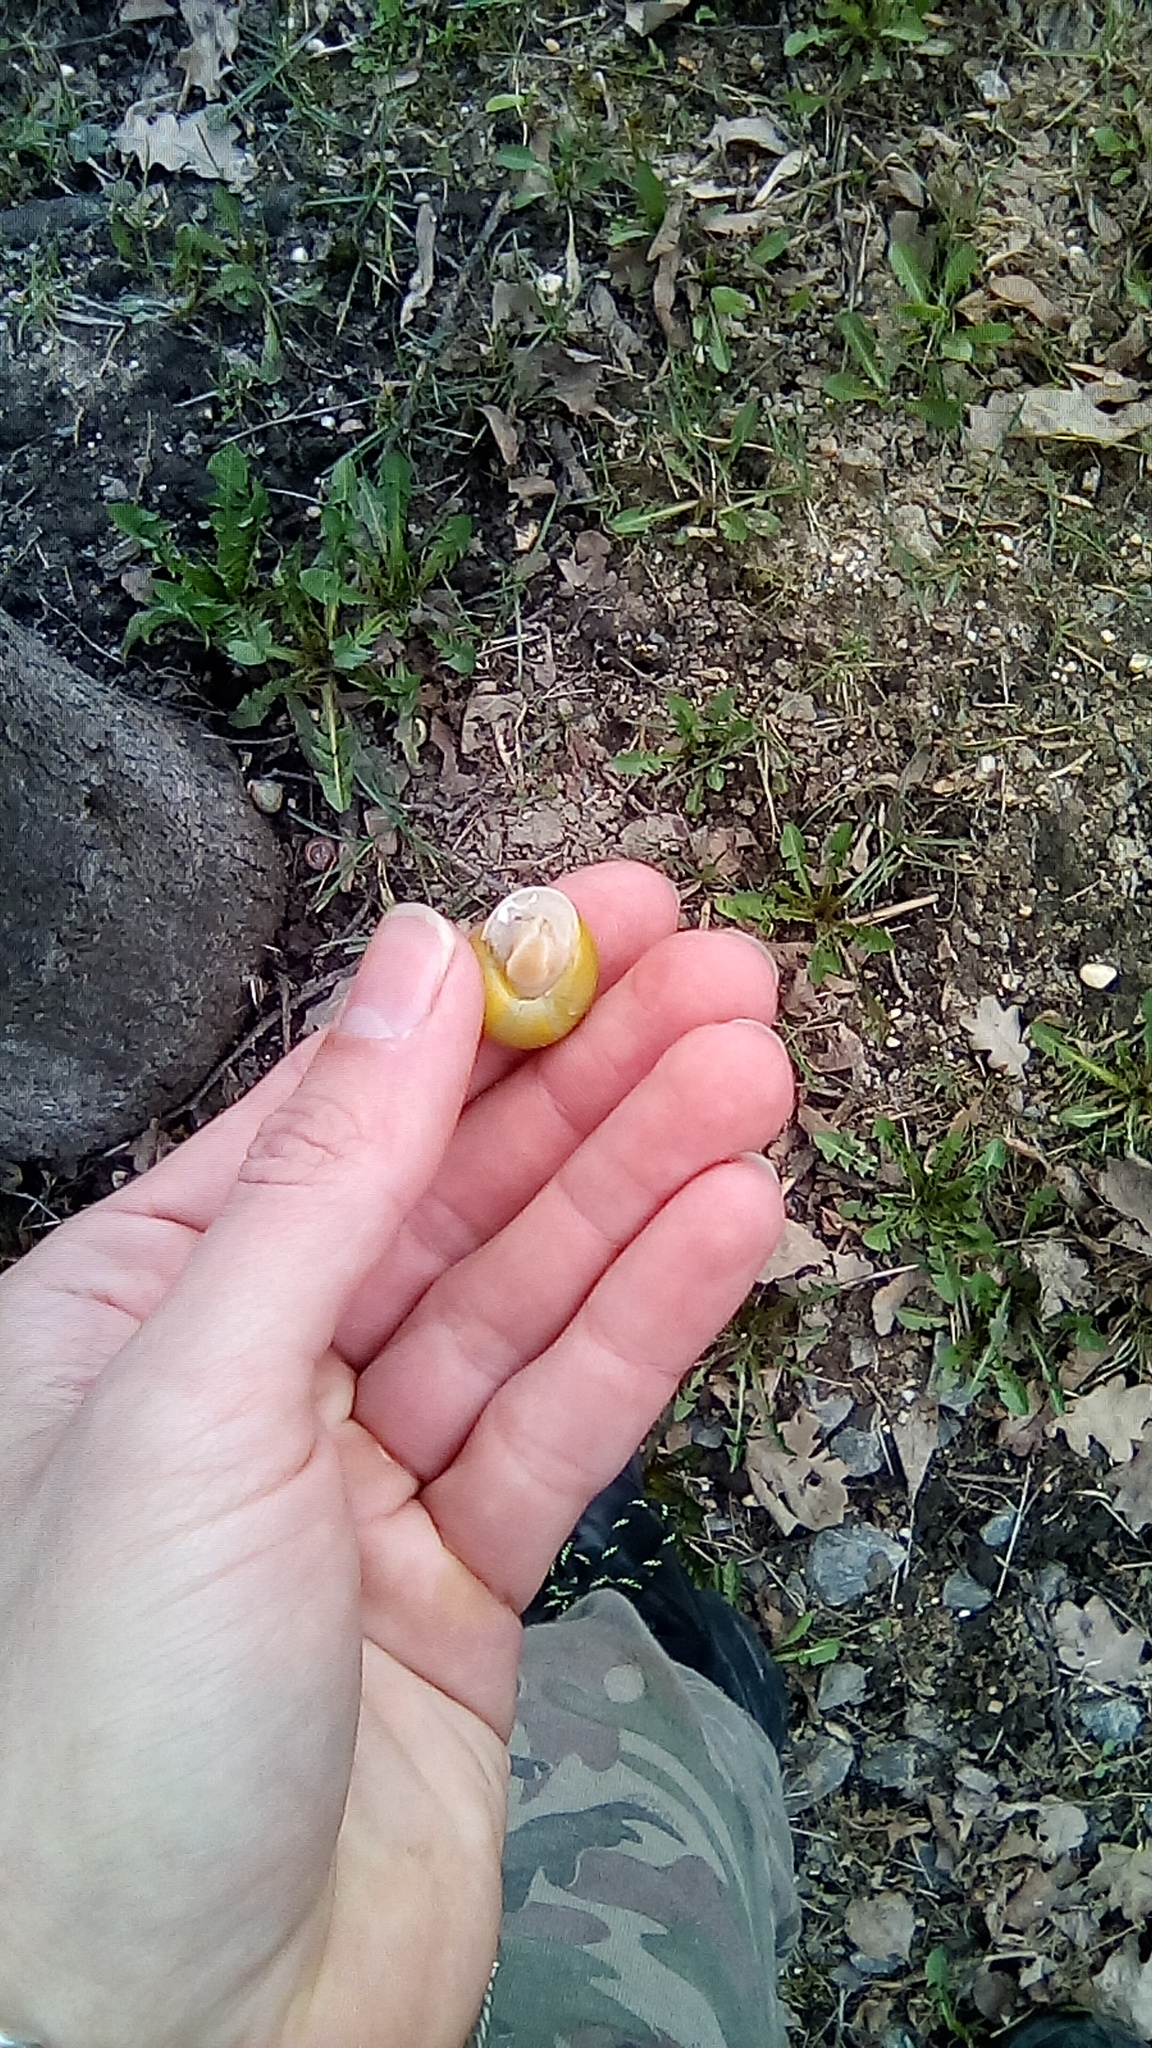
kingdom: Animalia
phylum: Mollusca
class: Gastropoda
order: Stylommatophora
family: Helicidae
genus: Cepaea
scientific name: Cepaea hortensis
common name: White-lip gardensnail
